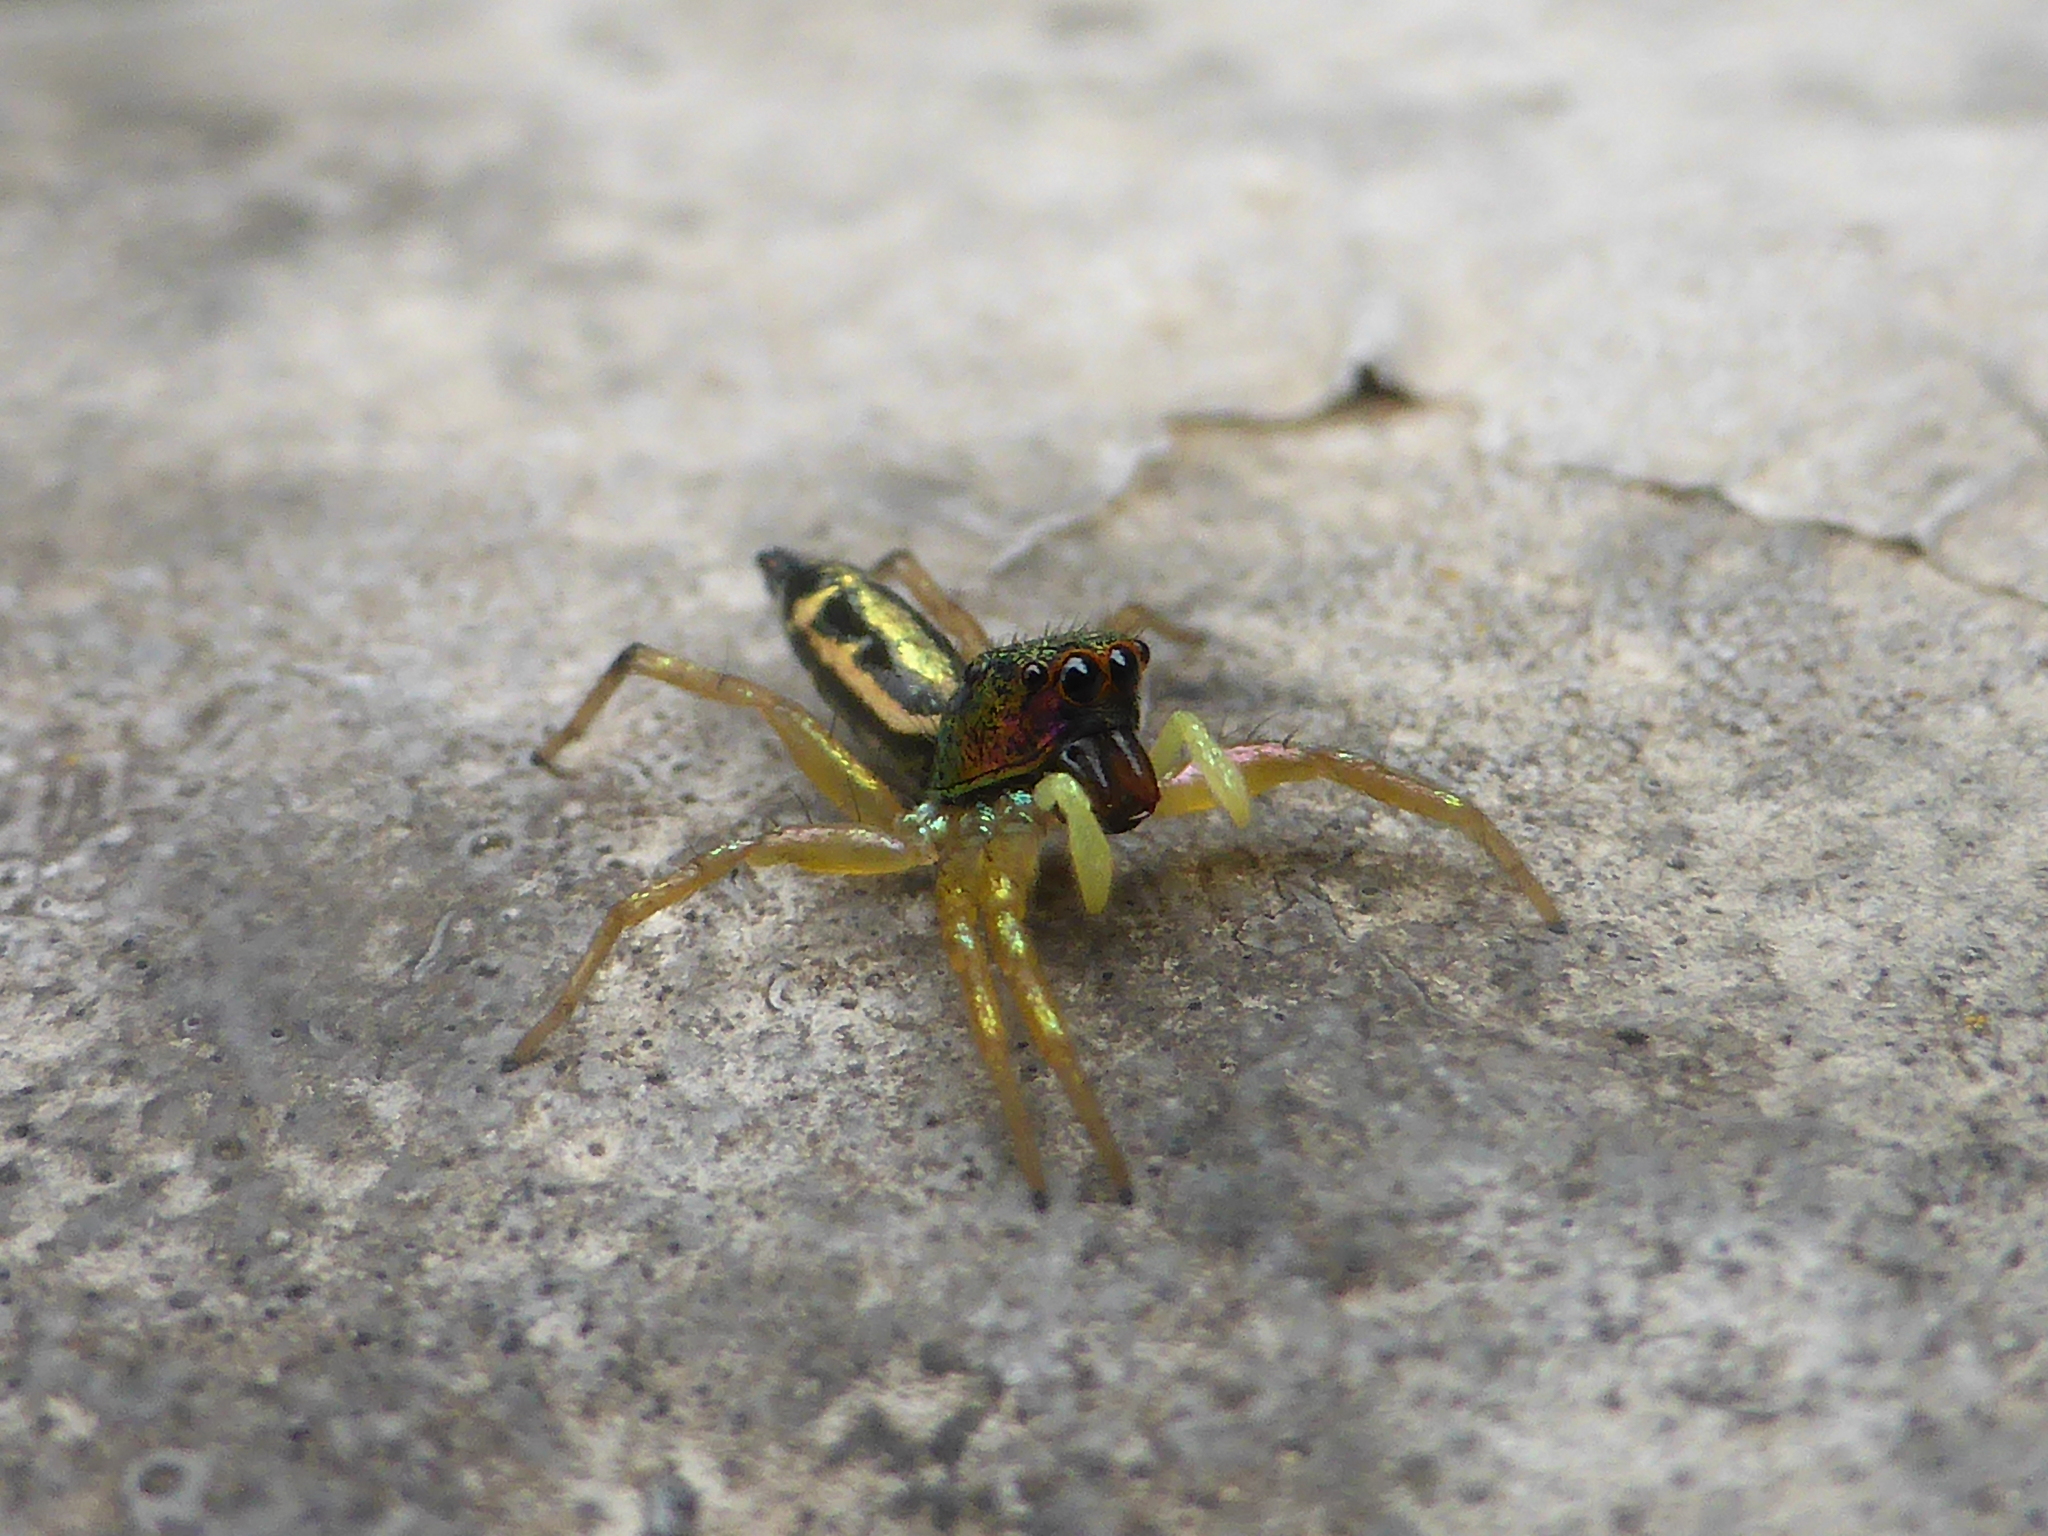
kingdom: Animalia
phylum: Arthropoda
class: Arachnida
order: Araneae
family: Salticidae
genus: Cosmophasis
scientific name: Cosmophasis thalassina
